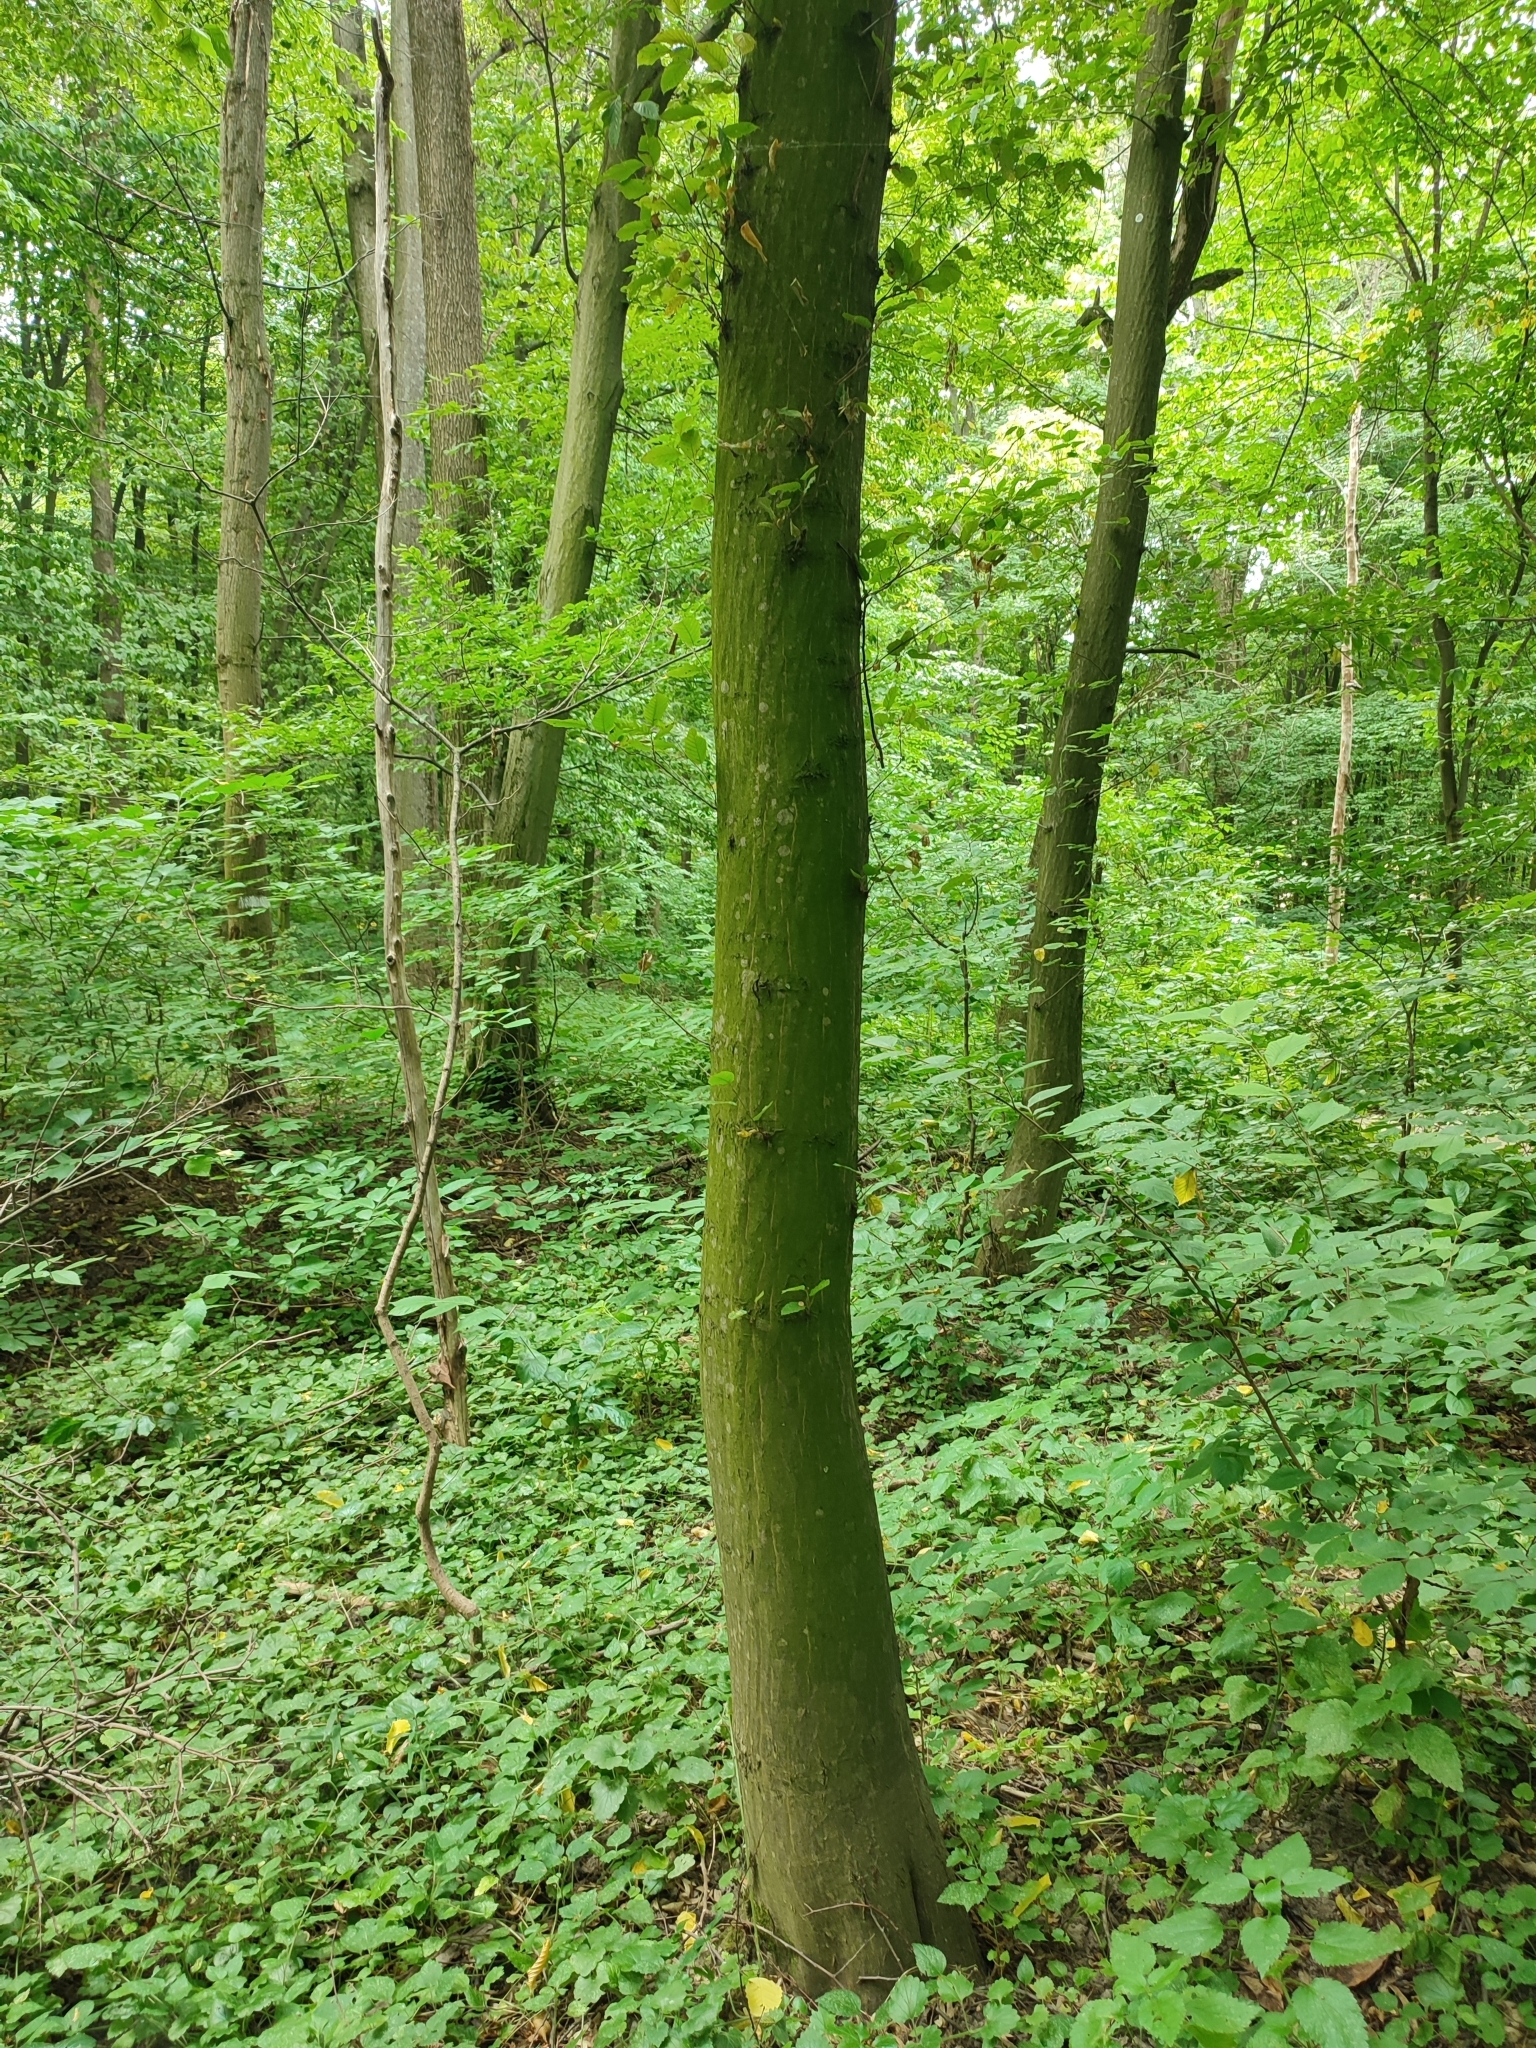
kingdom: Plantae
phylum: Tracheophyta
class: Magnoliopsida
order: Fagales
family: Betulaceae
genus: Carpinus
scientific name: Carpinus betulus
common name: Hornbeam
